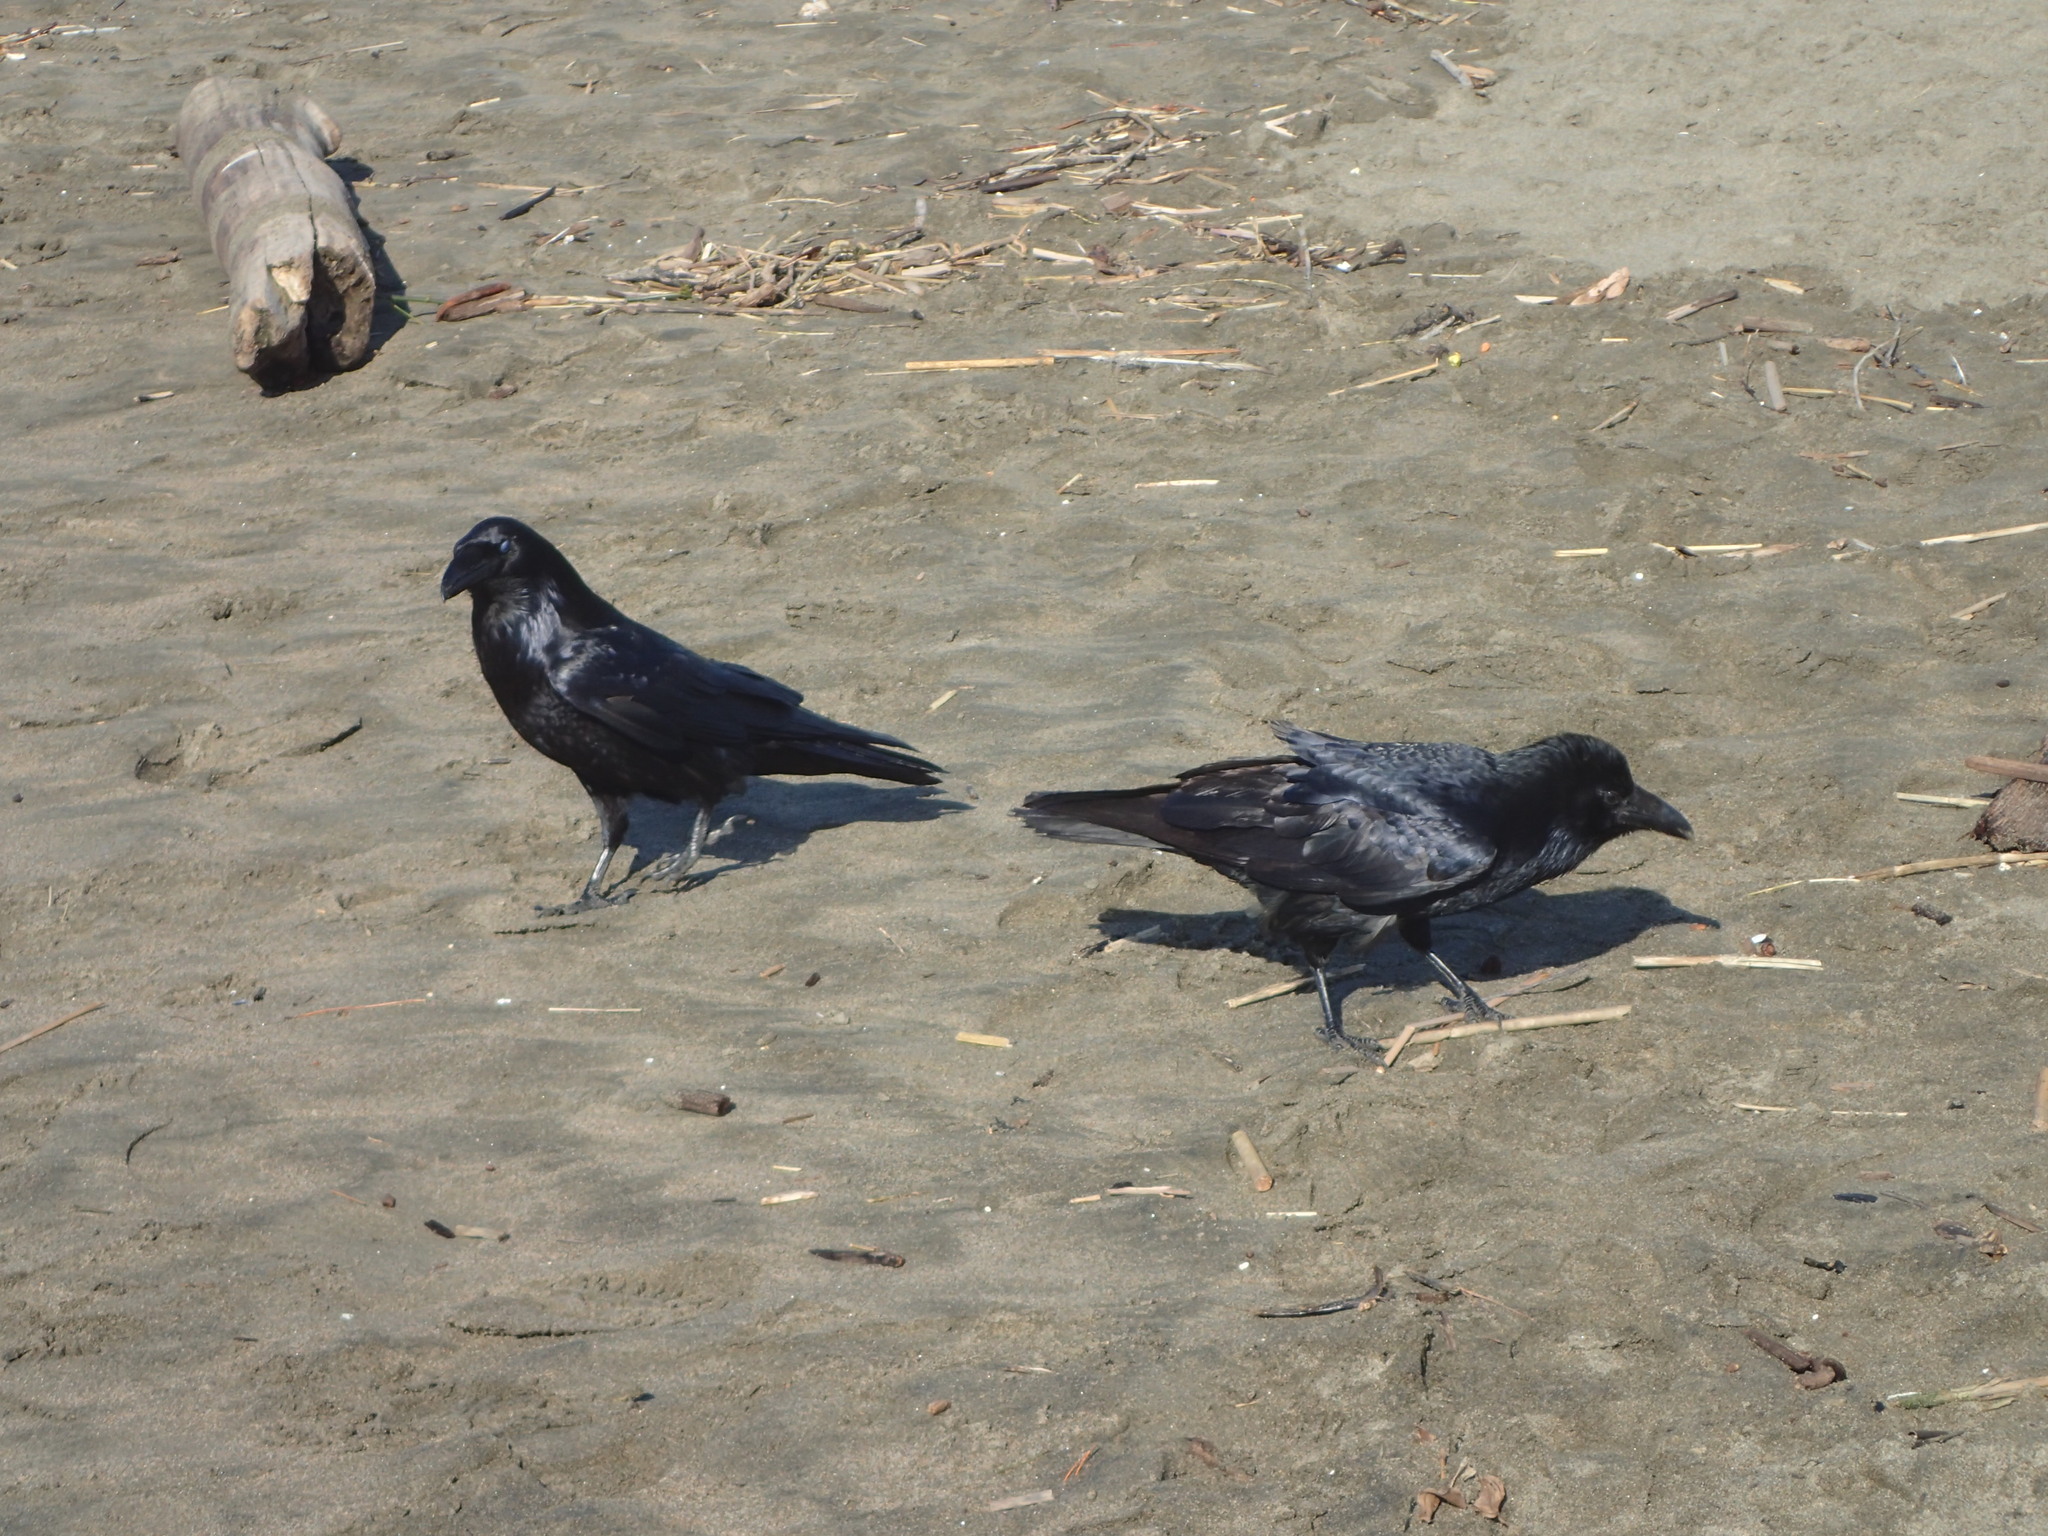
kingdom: Animalia
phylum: Chordata
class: Aves
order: Passeriformes
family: Corvidae
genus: Corvus
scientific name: Corvus corax
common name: Common raven
